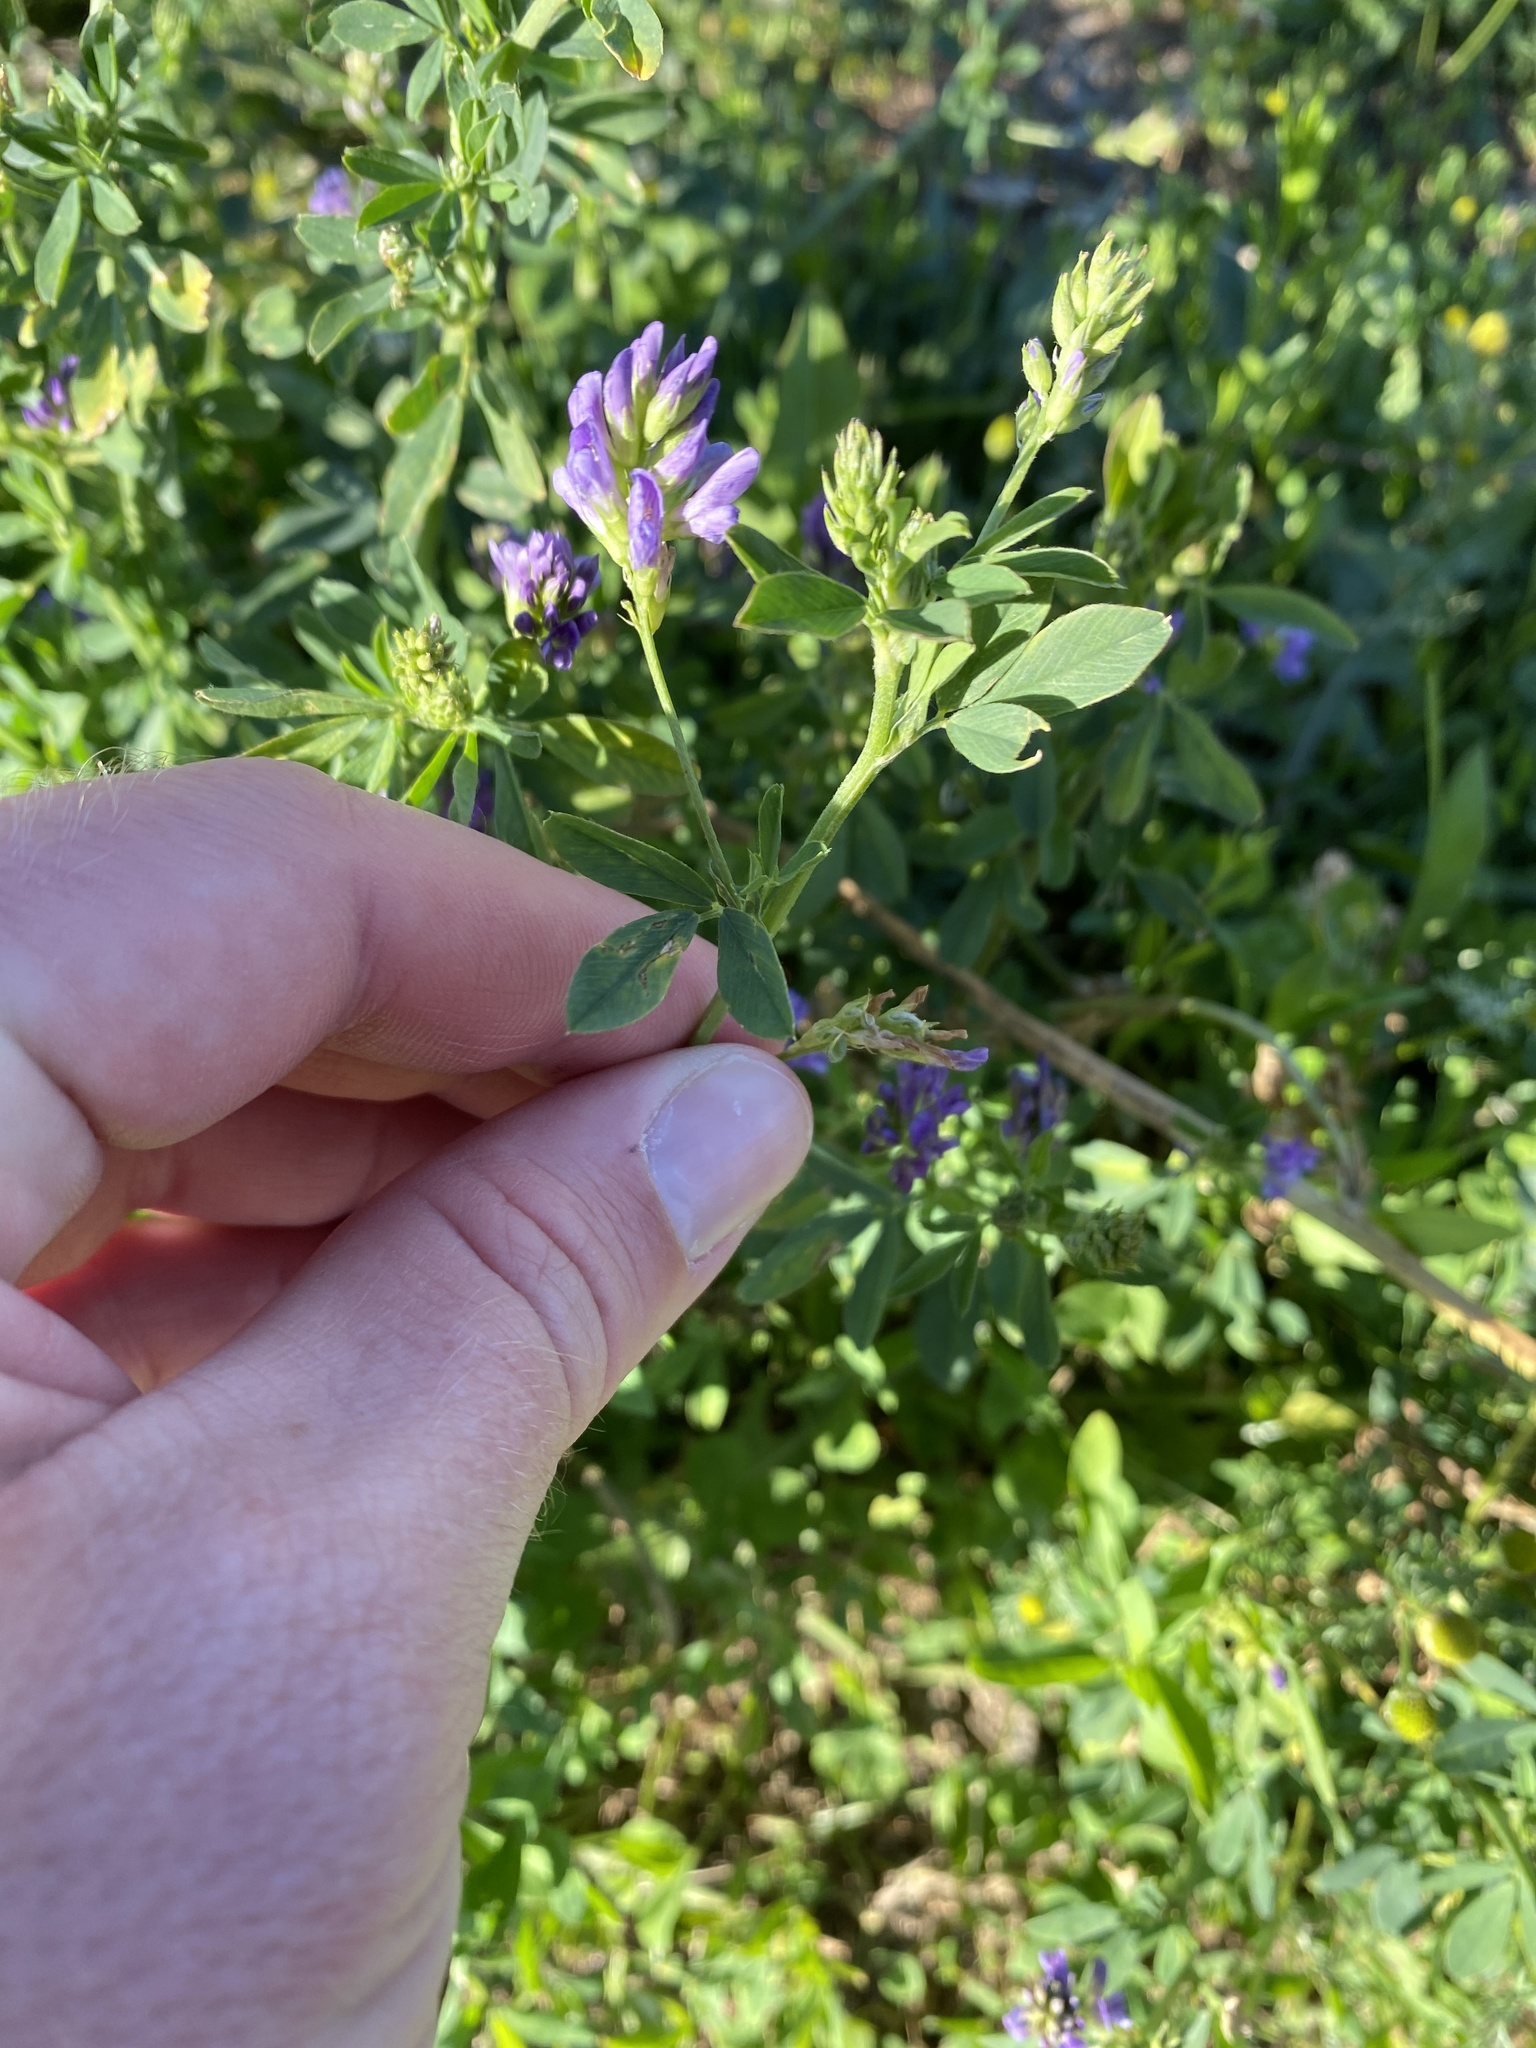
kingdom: Plantae
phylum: Tracheophyta
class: Magnoliopsida
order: Fabales
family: Fabaceae
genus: Medicago
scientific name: Medicago sativa
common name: Alfalfa
